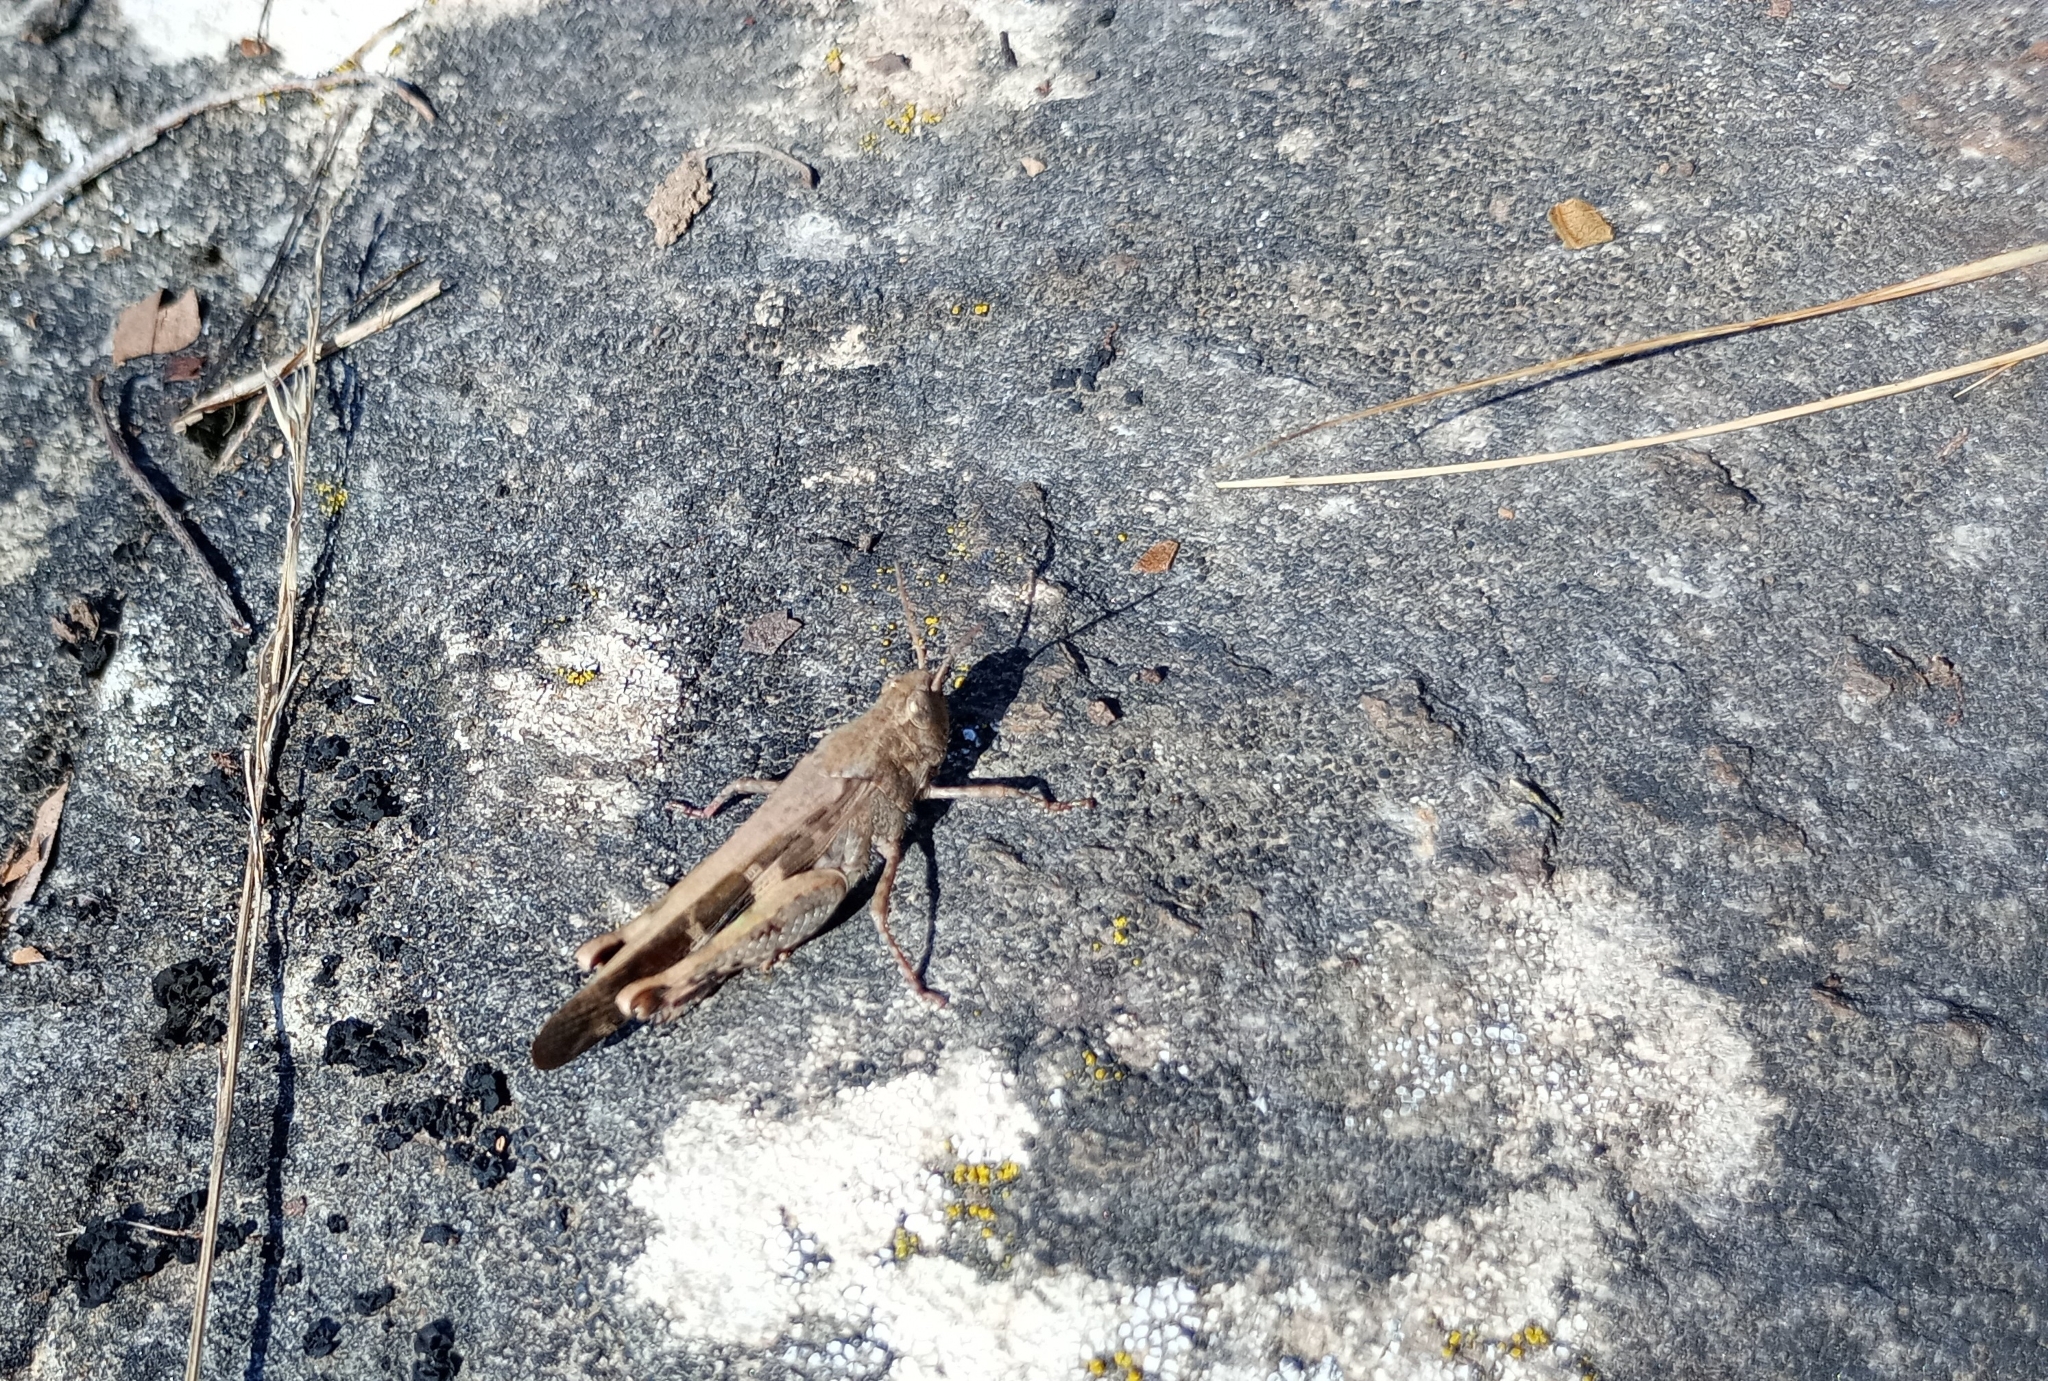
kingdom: Animalia
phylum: Arthropoda
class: Insecta
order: Orthoptera
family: Acrididae
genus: Aiolopus
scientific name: Aiolopus strepens
